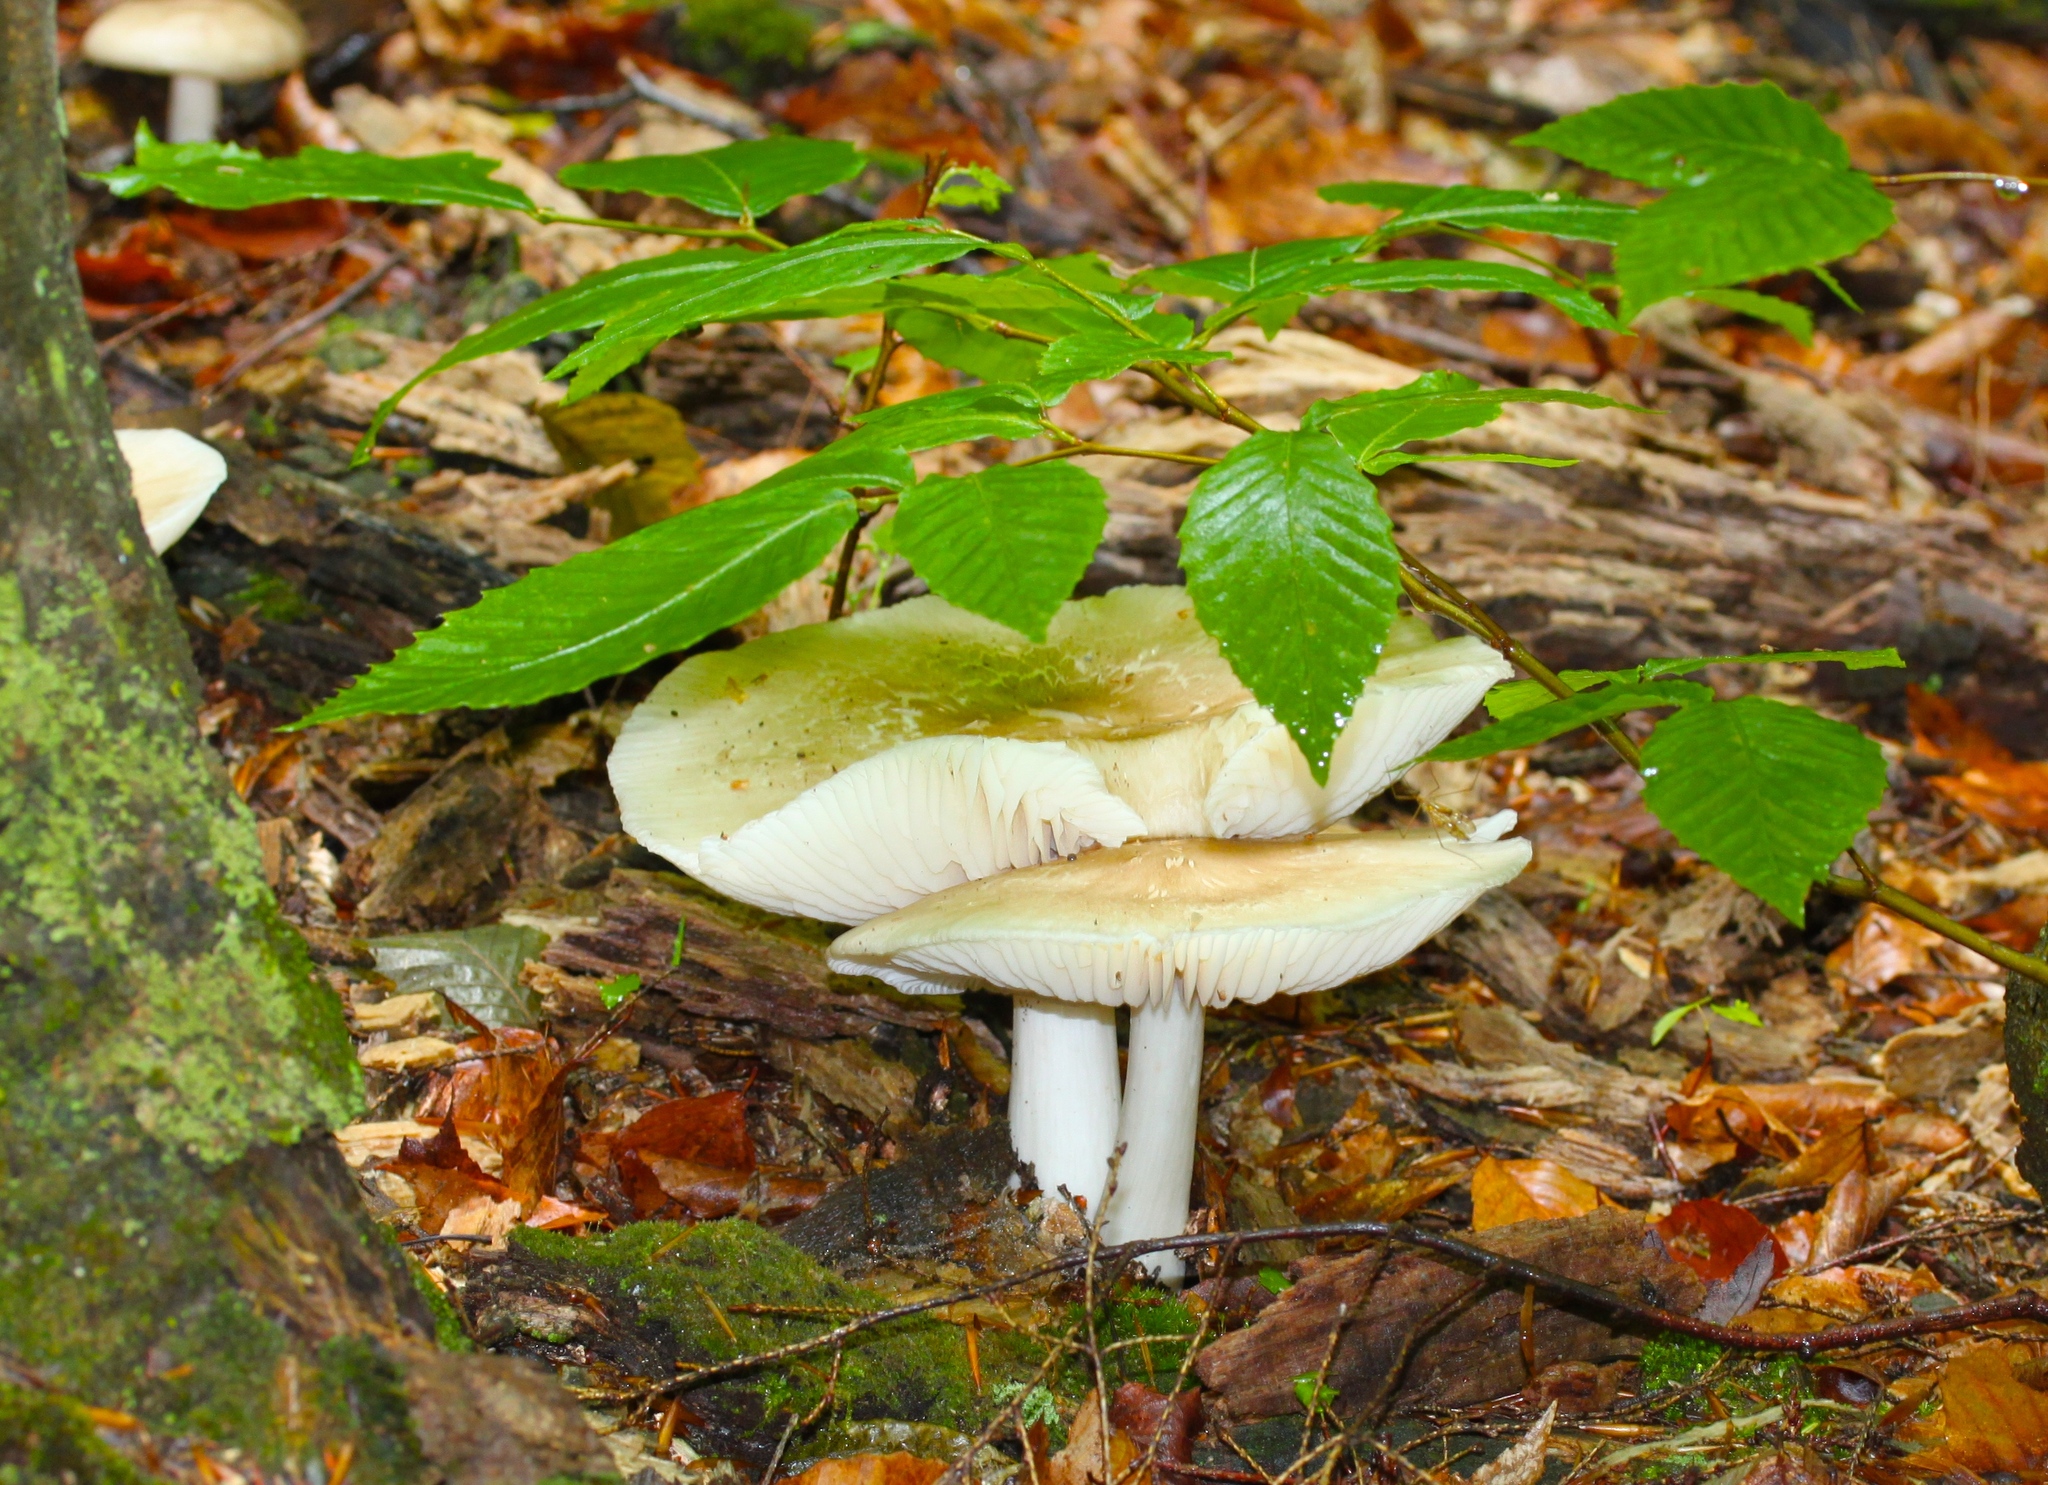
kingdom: Fungi
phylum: Basidiomycota
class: Agaricomycetes
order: Agaricales
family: Tricholomataceae
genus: Megacollybia
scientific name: Megacollybia rodmanii
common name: Eastern american platterful mushroom
